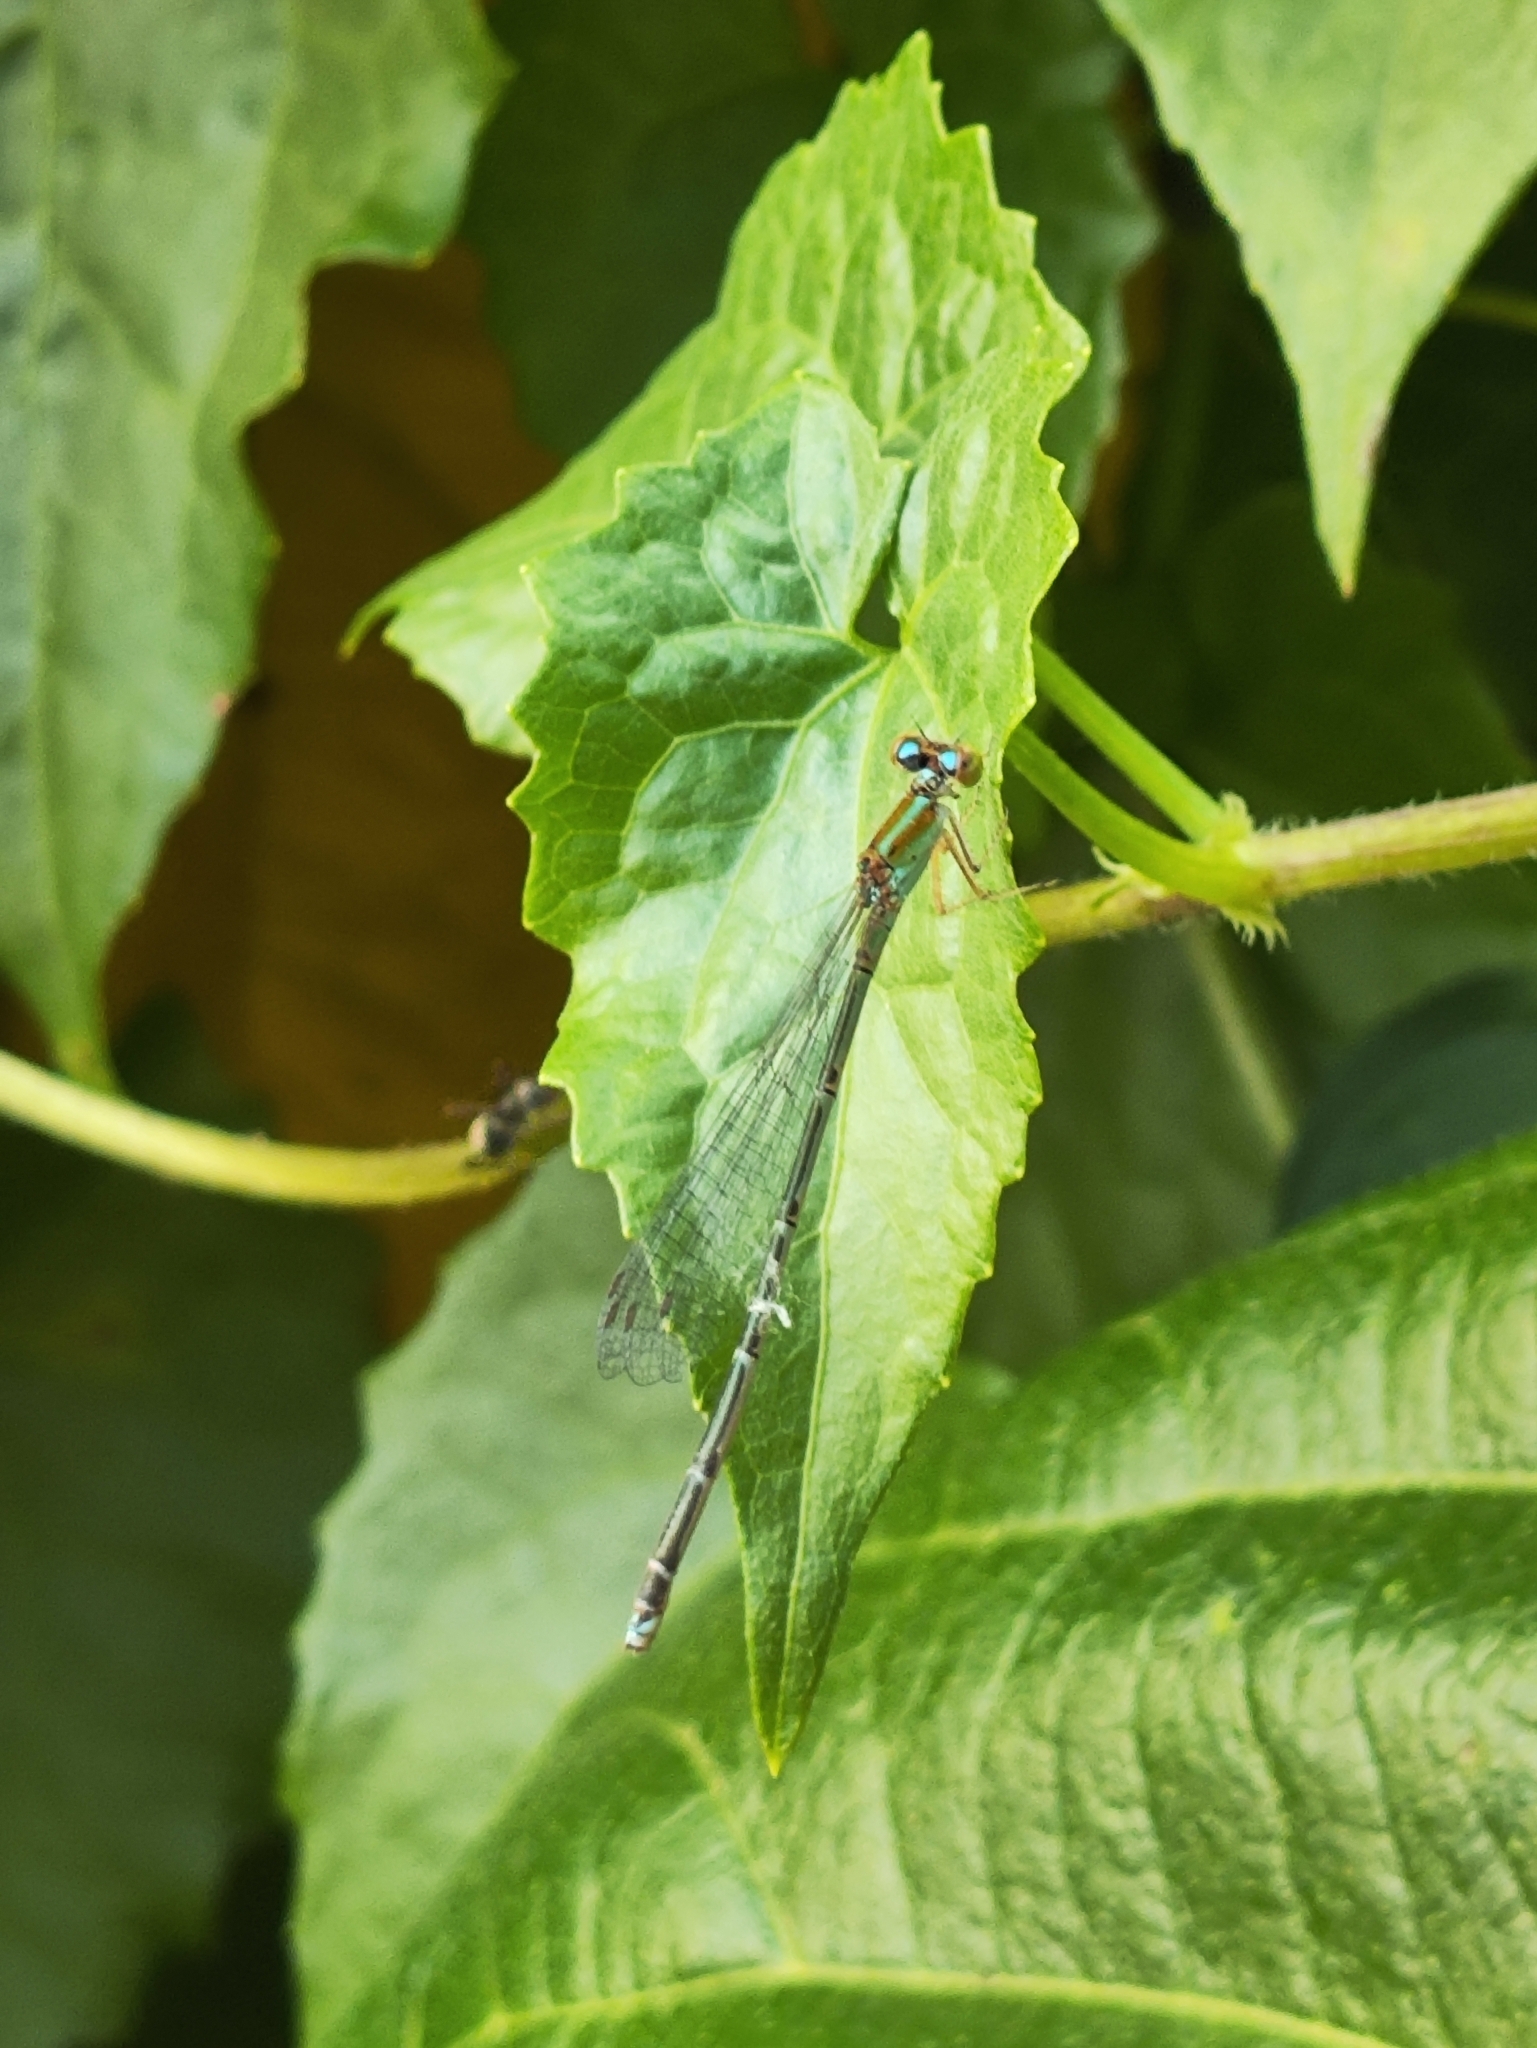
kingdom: Animalia
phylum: Arthropoda
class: Insecta
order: Odonata
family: Coenagrionidae
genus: Pseudagrion
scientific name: Pseudagrion microcephalum
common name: Blue riverdamsel
